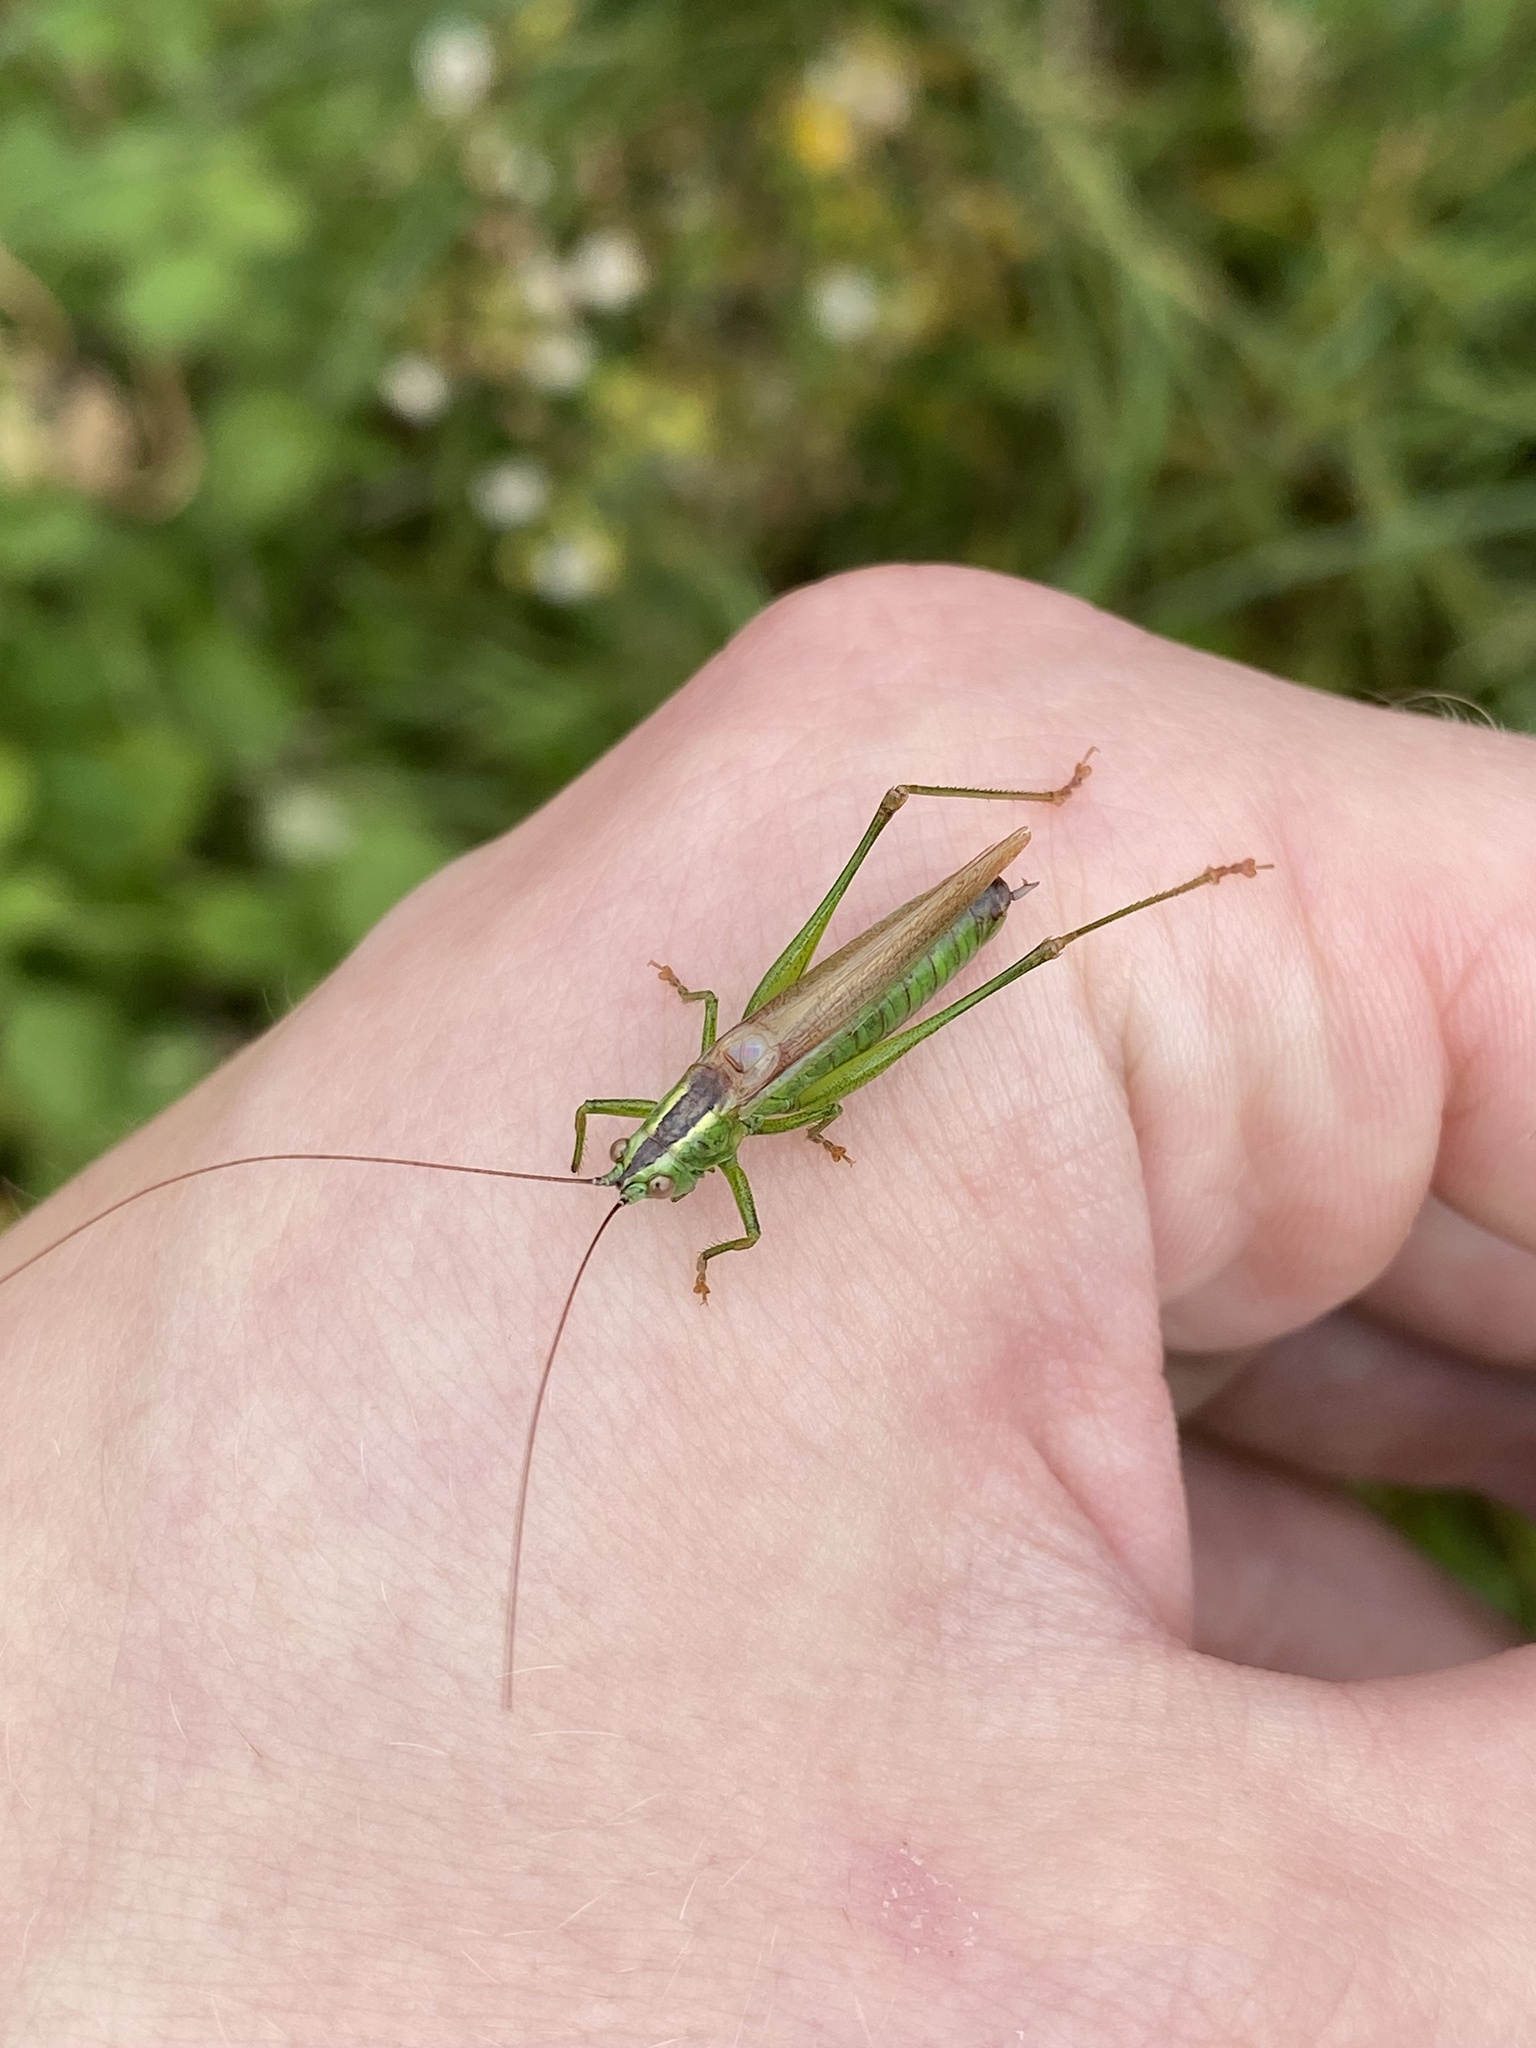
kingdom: Animalia
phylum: Arthropoda
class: Insecta
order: Orthoptera
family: Tettigoniidae
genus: Conocephalus
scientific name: Conocephalus fuscus
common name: Long-winged conehead
